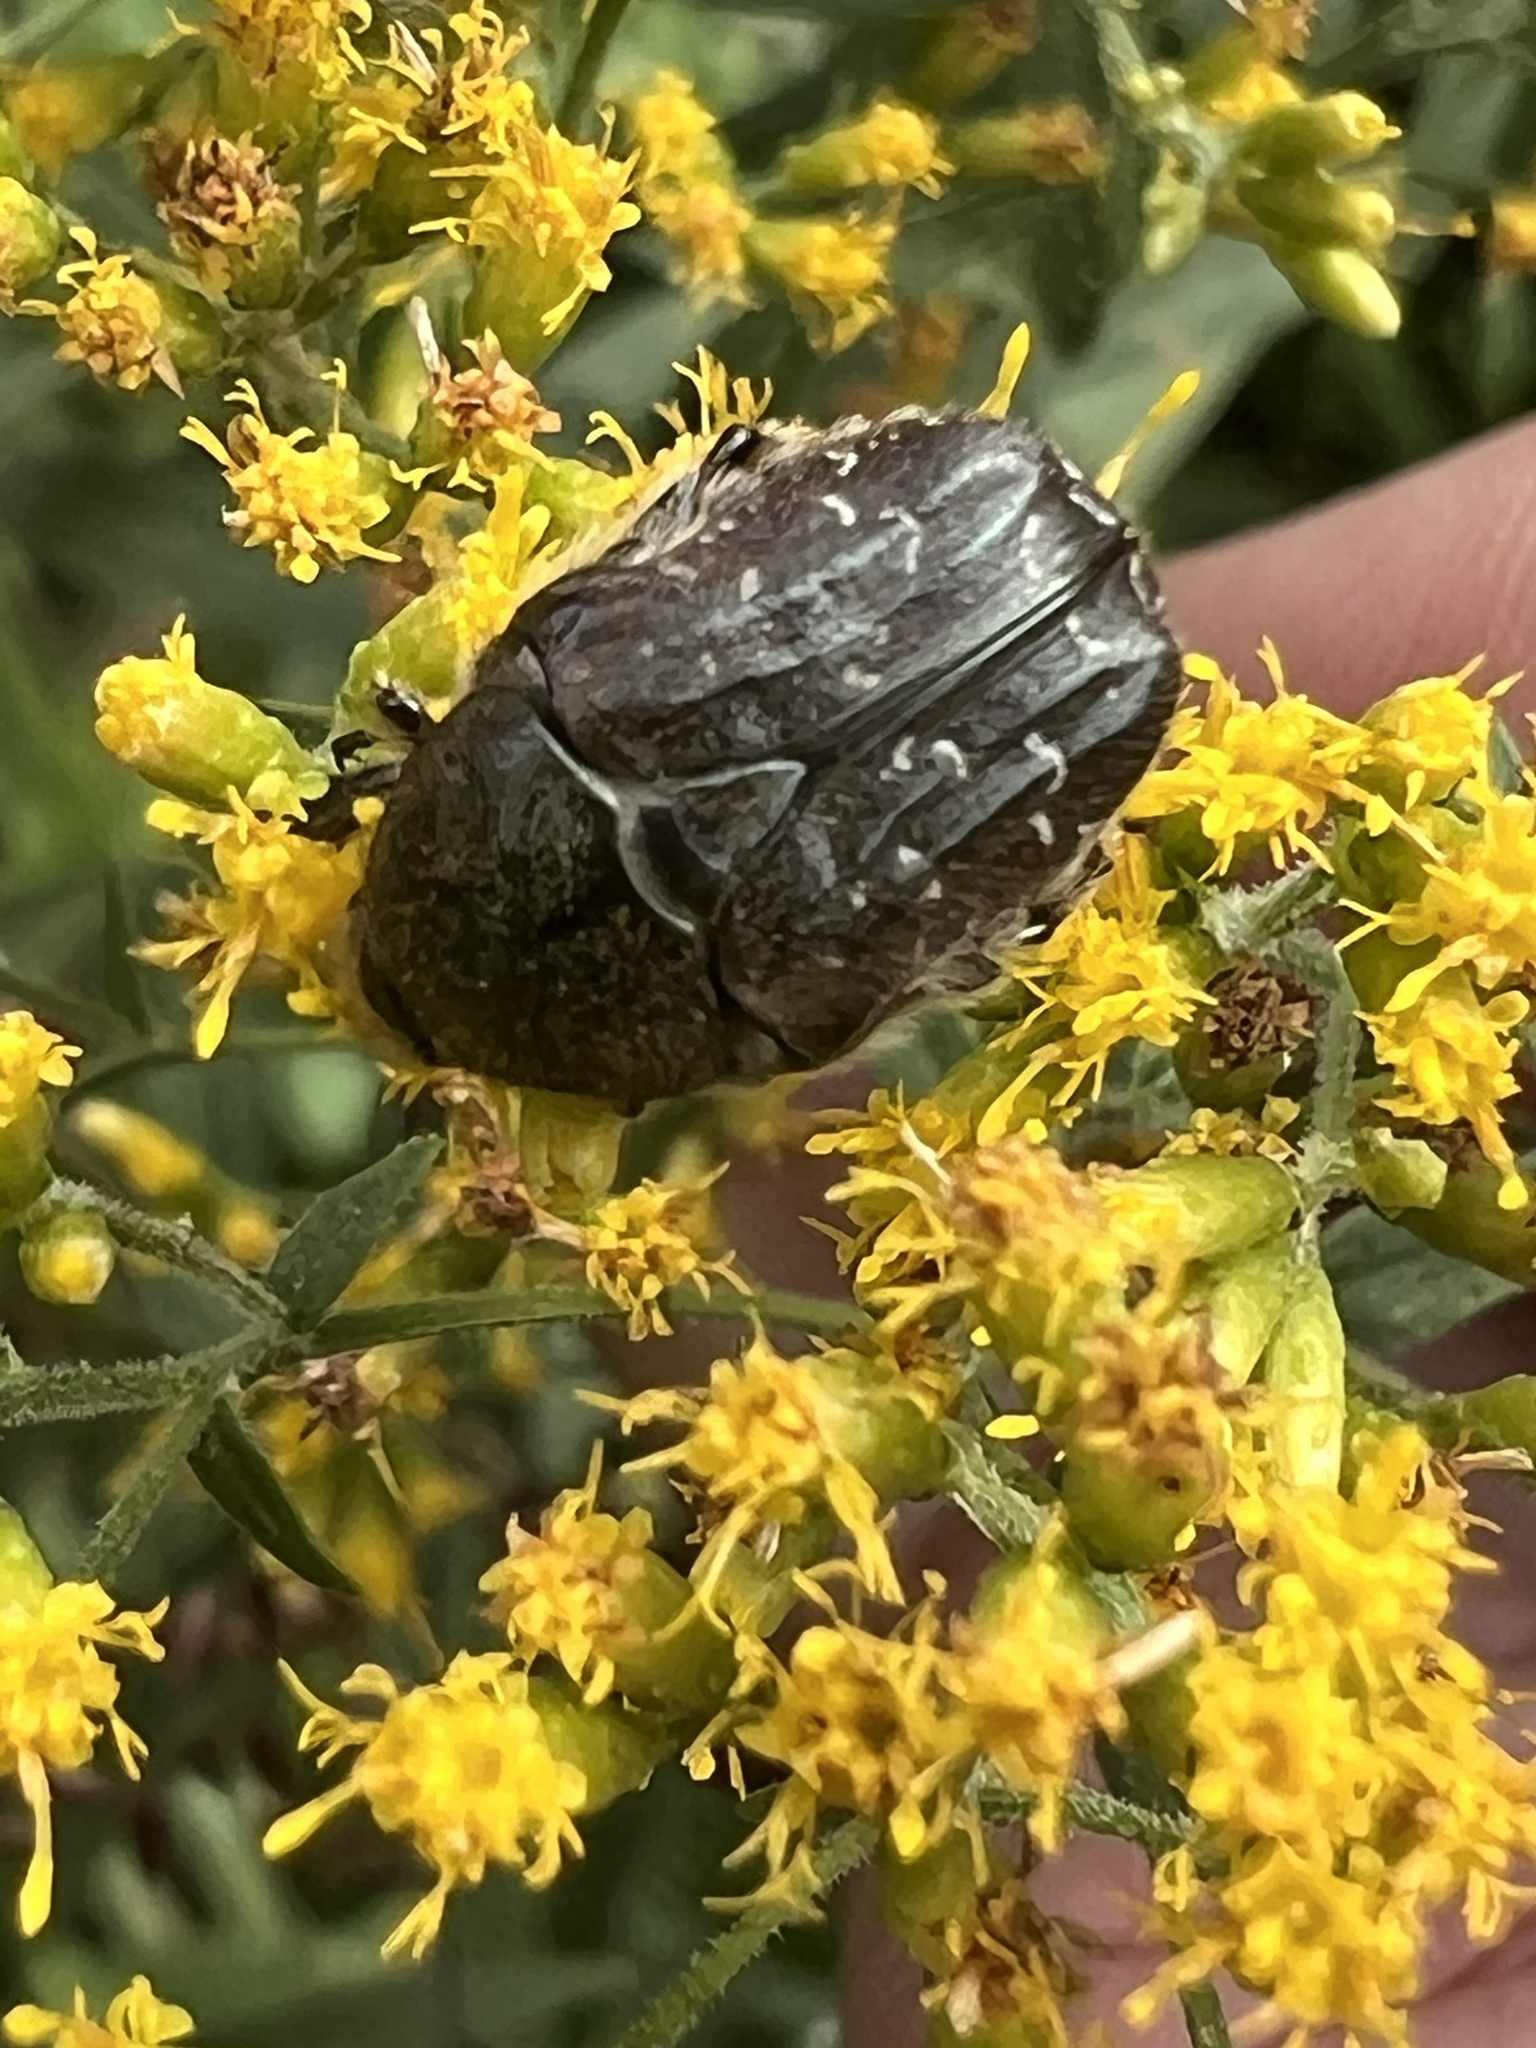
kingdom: Animalia
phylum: Arthropoda
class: Insecta
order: Coleoptera
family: Scarabaeidae
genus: Euphoria
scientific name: Euphoria sepulcralis
